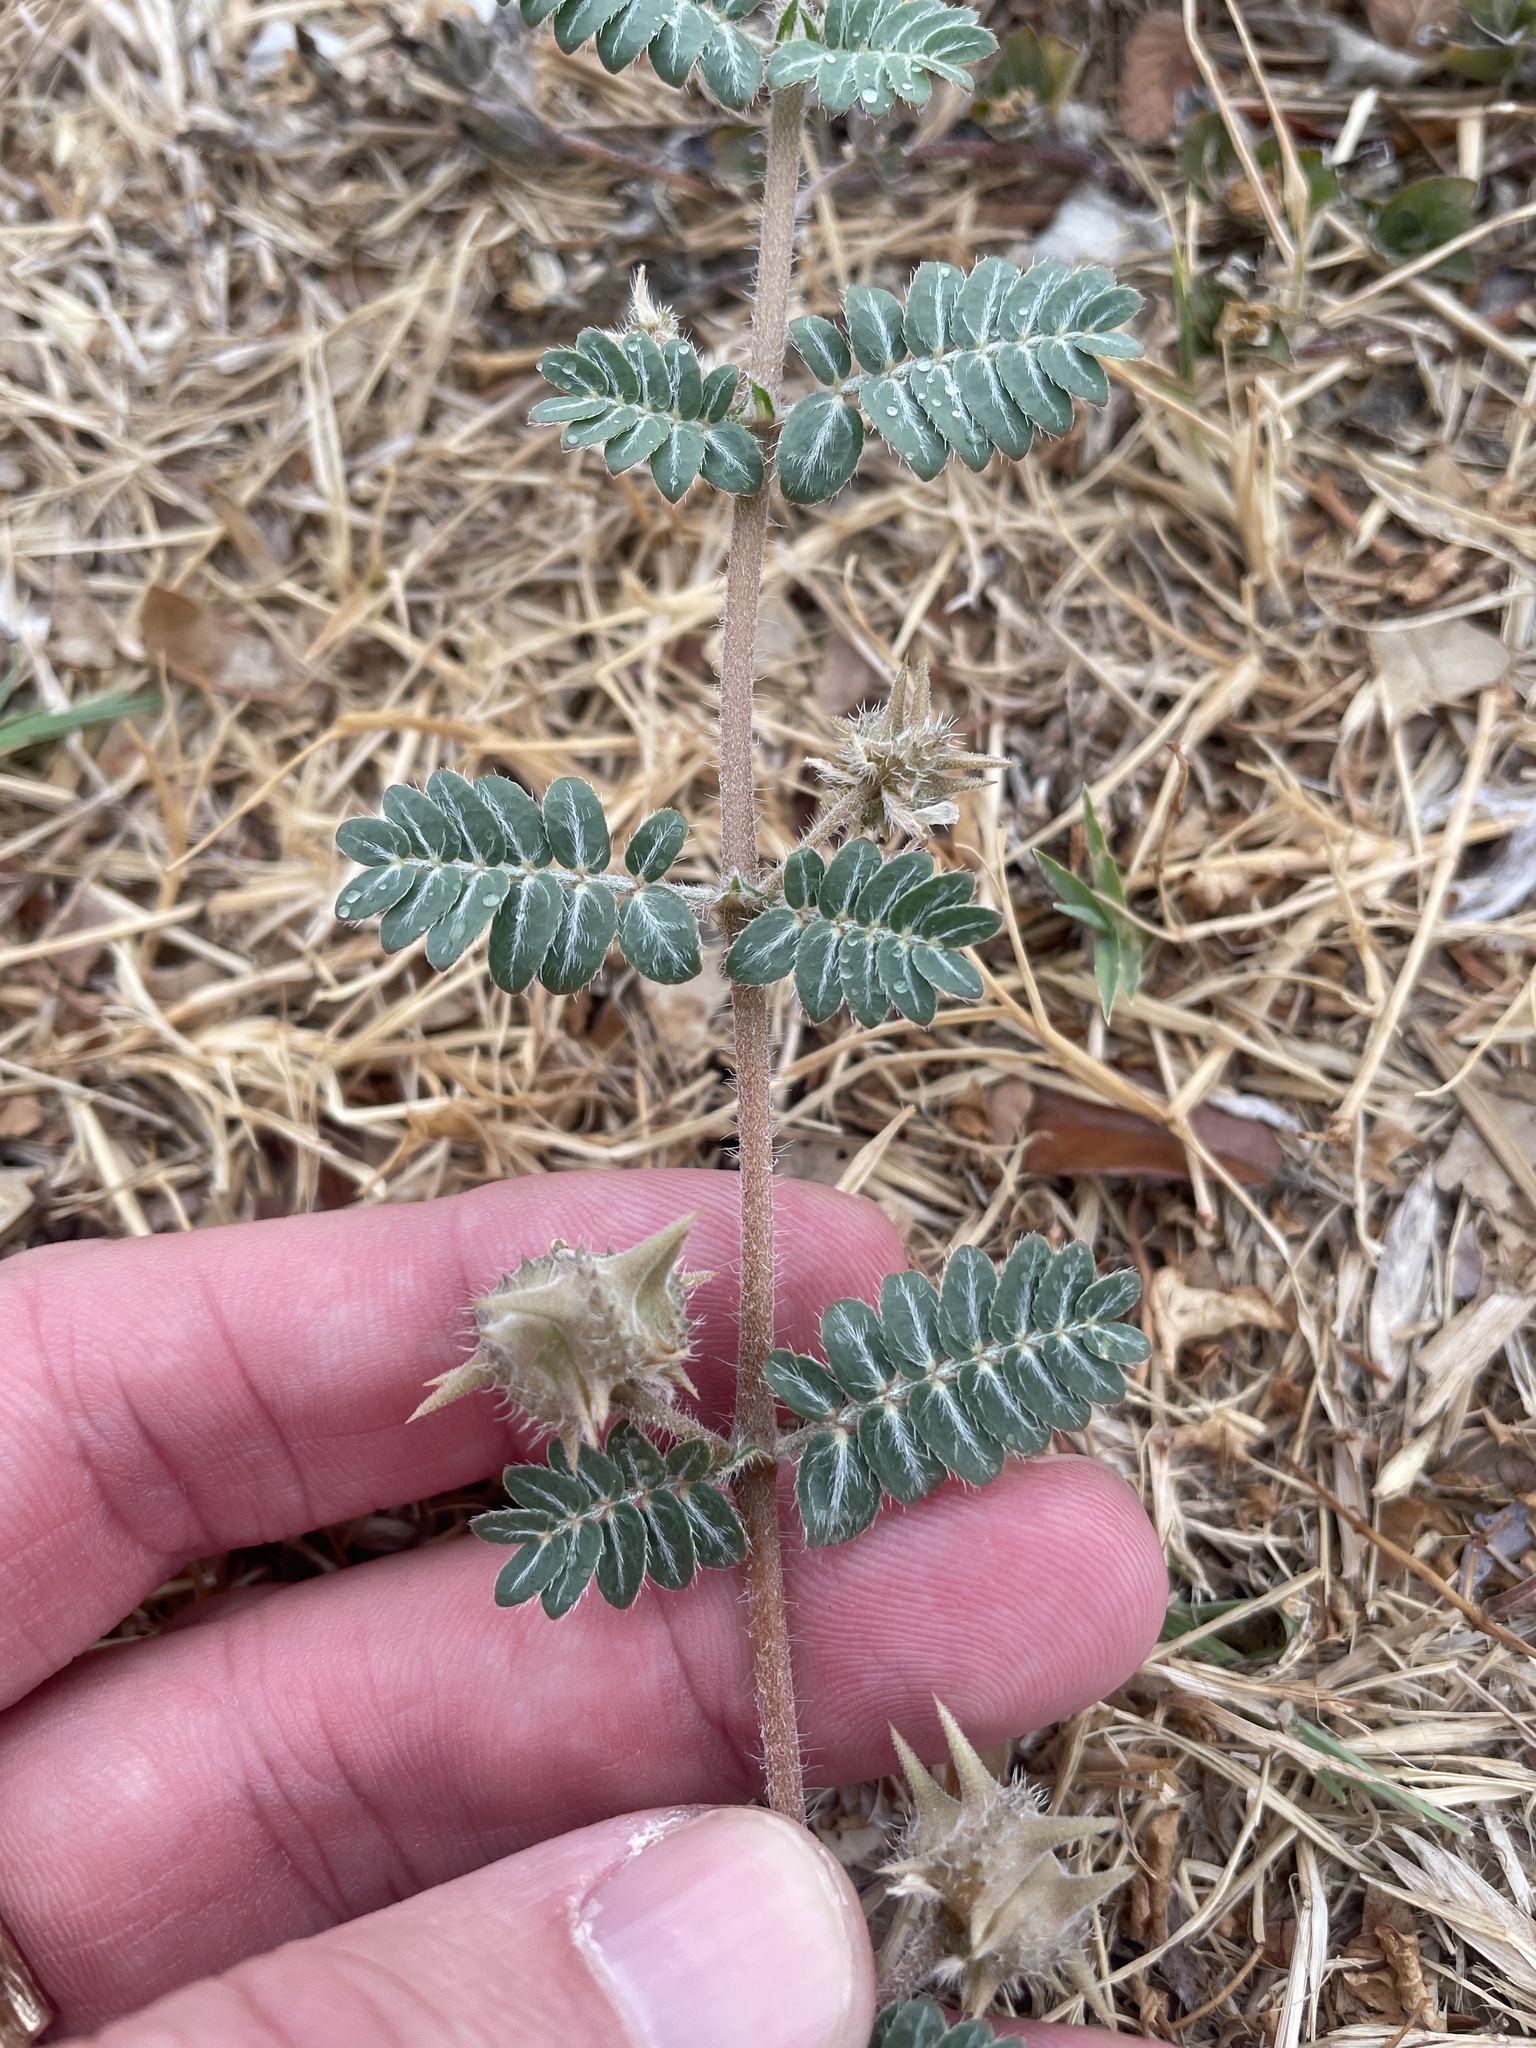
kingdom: Plantae
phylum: Tracheophyta
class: Magnoliopsida
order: Zygophyllales
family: Zygophyllaceae
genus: Tribulus
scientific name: Tribulus terrestris
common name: Puncturevine
